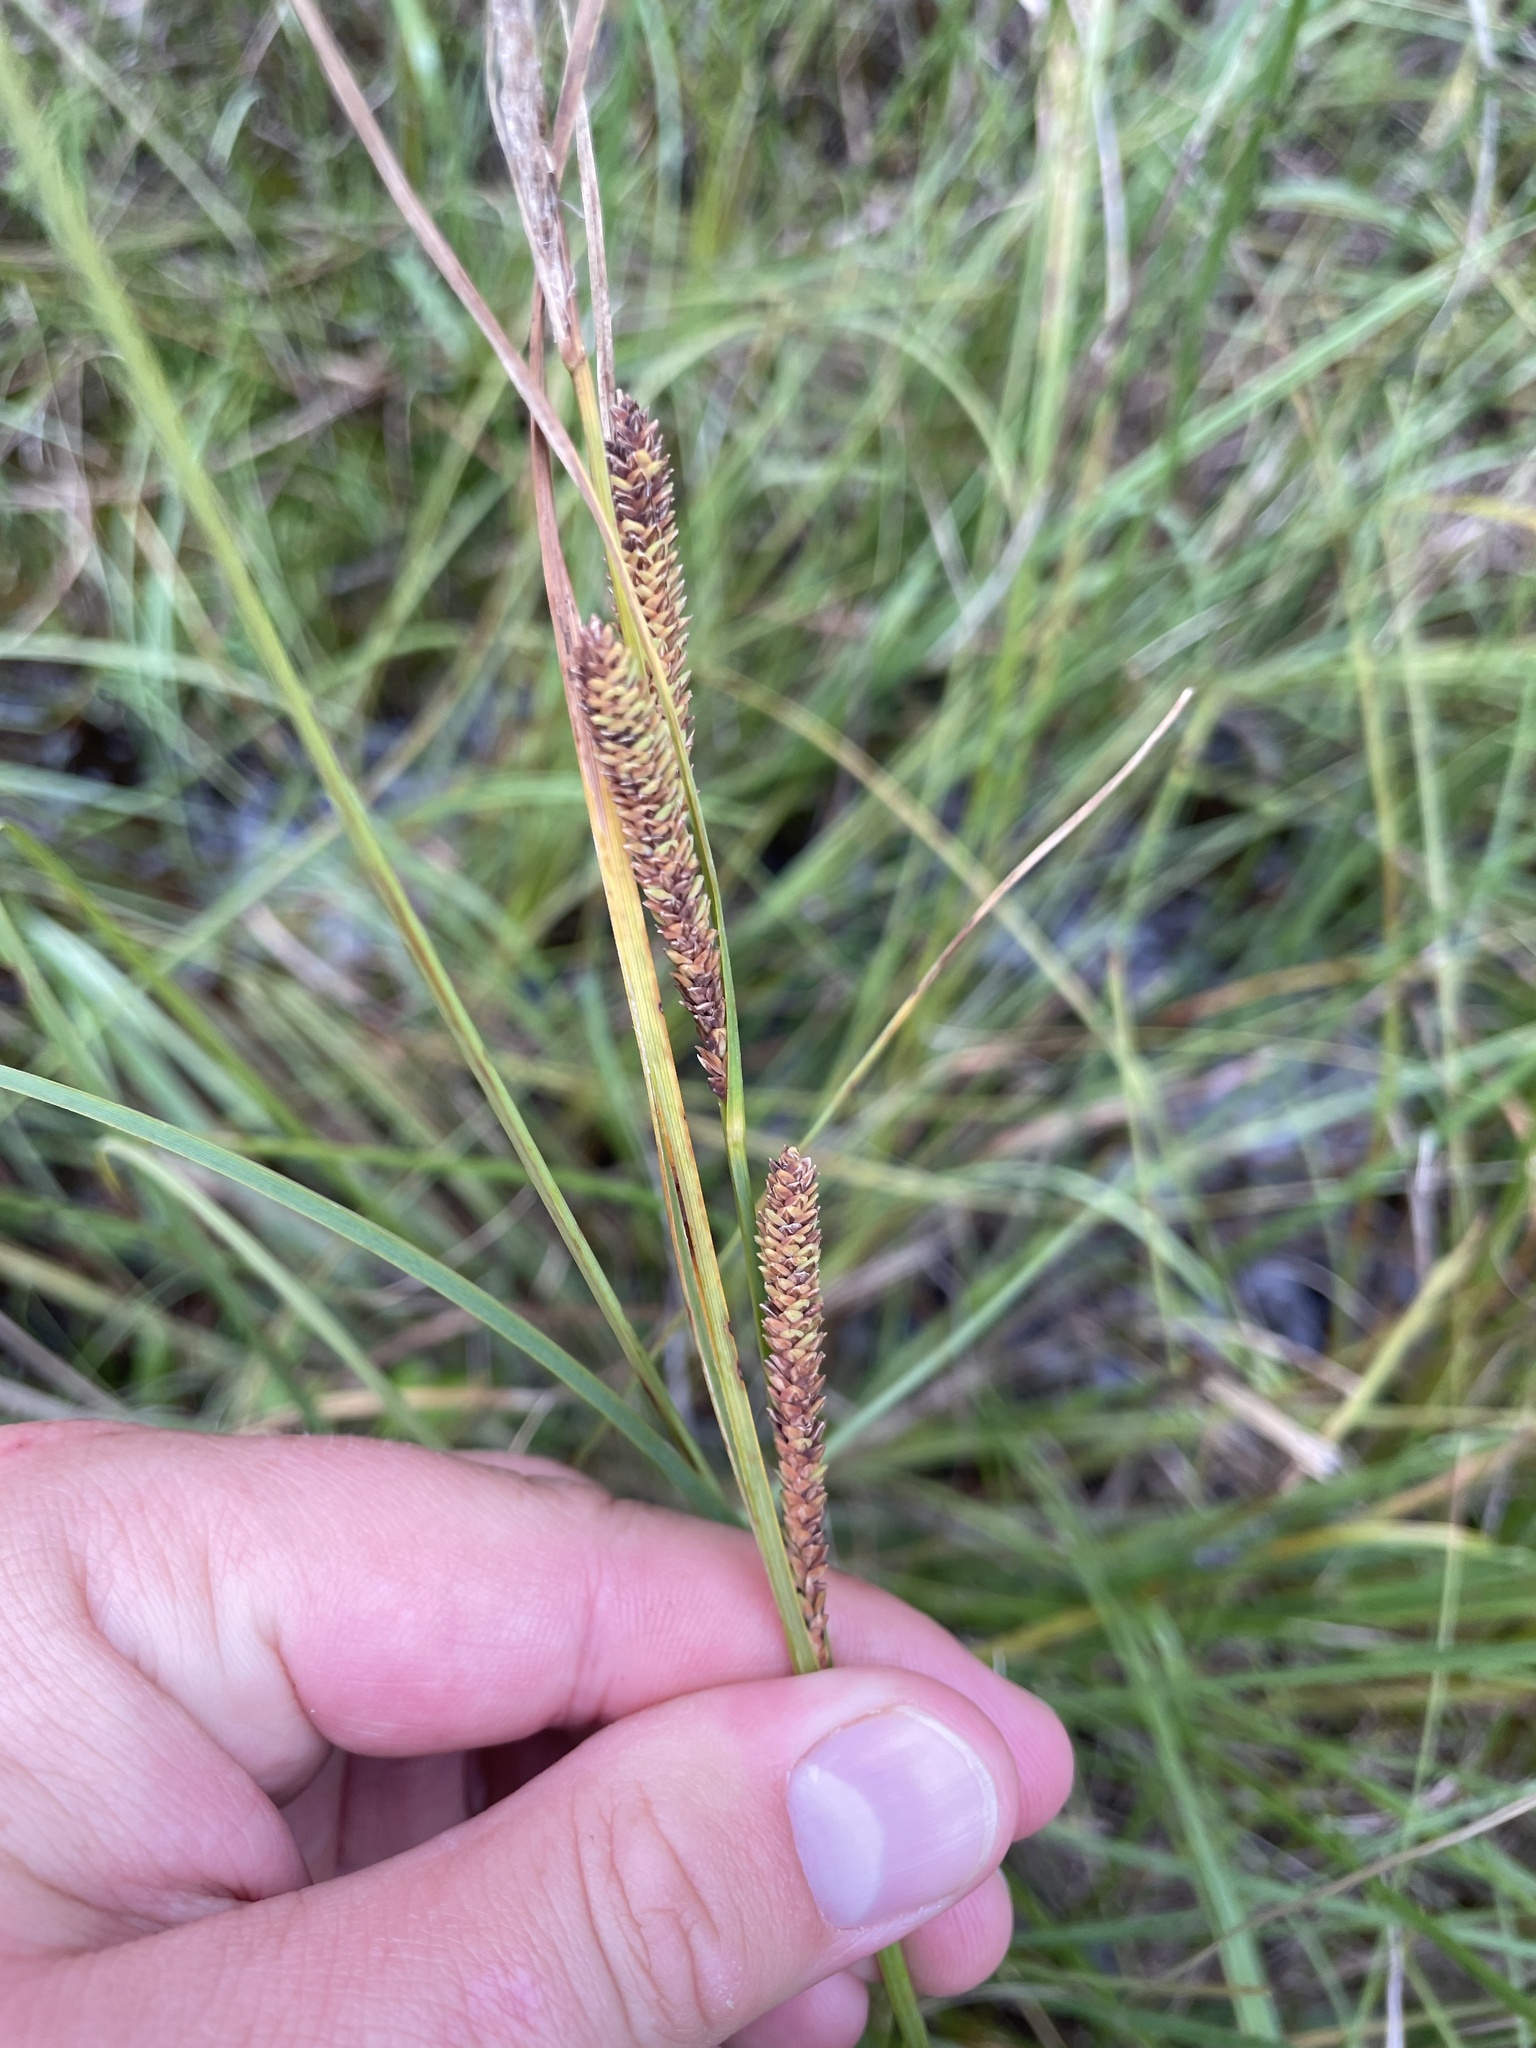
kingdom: Plantae
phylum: Tracheophyta
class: Liliopsida
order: Poales
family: Cyperaceae
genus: Carex
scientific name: Carex aquatilis
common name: Water sedge
